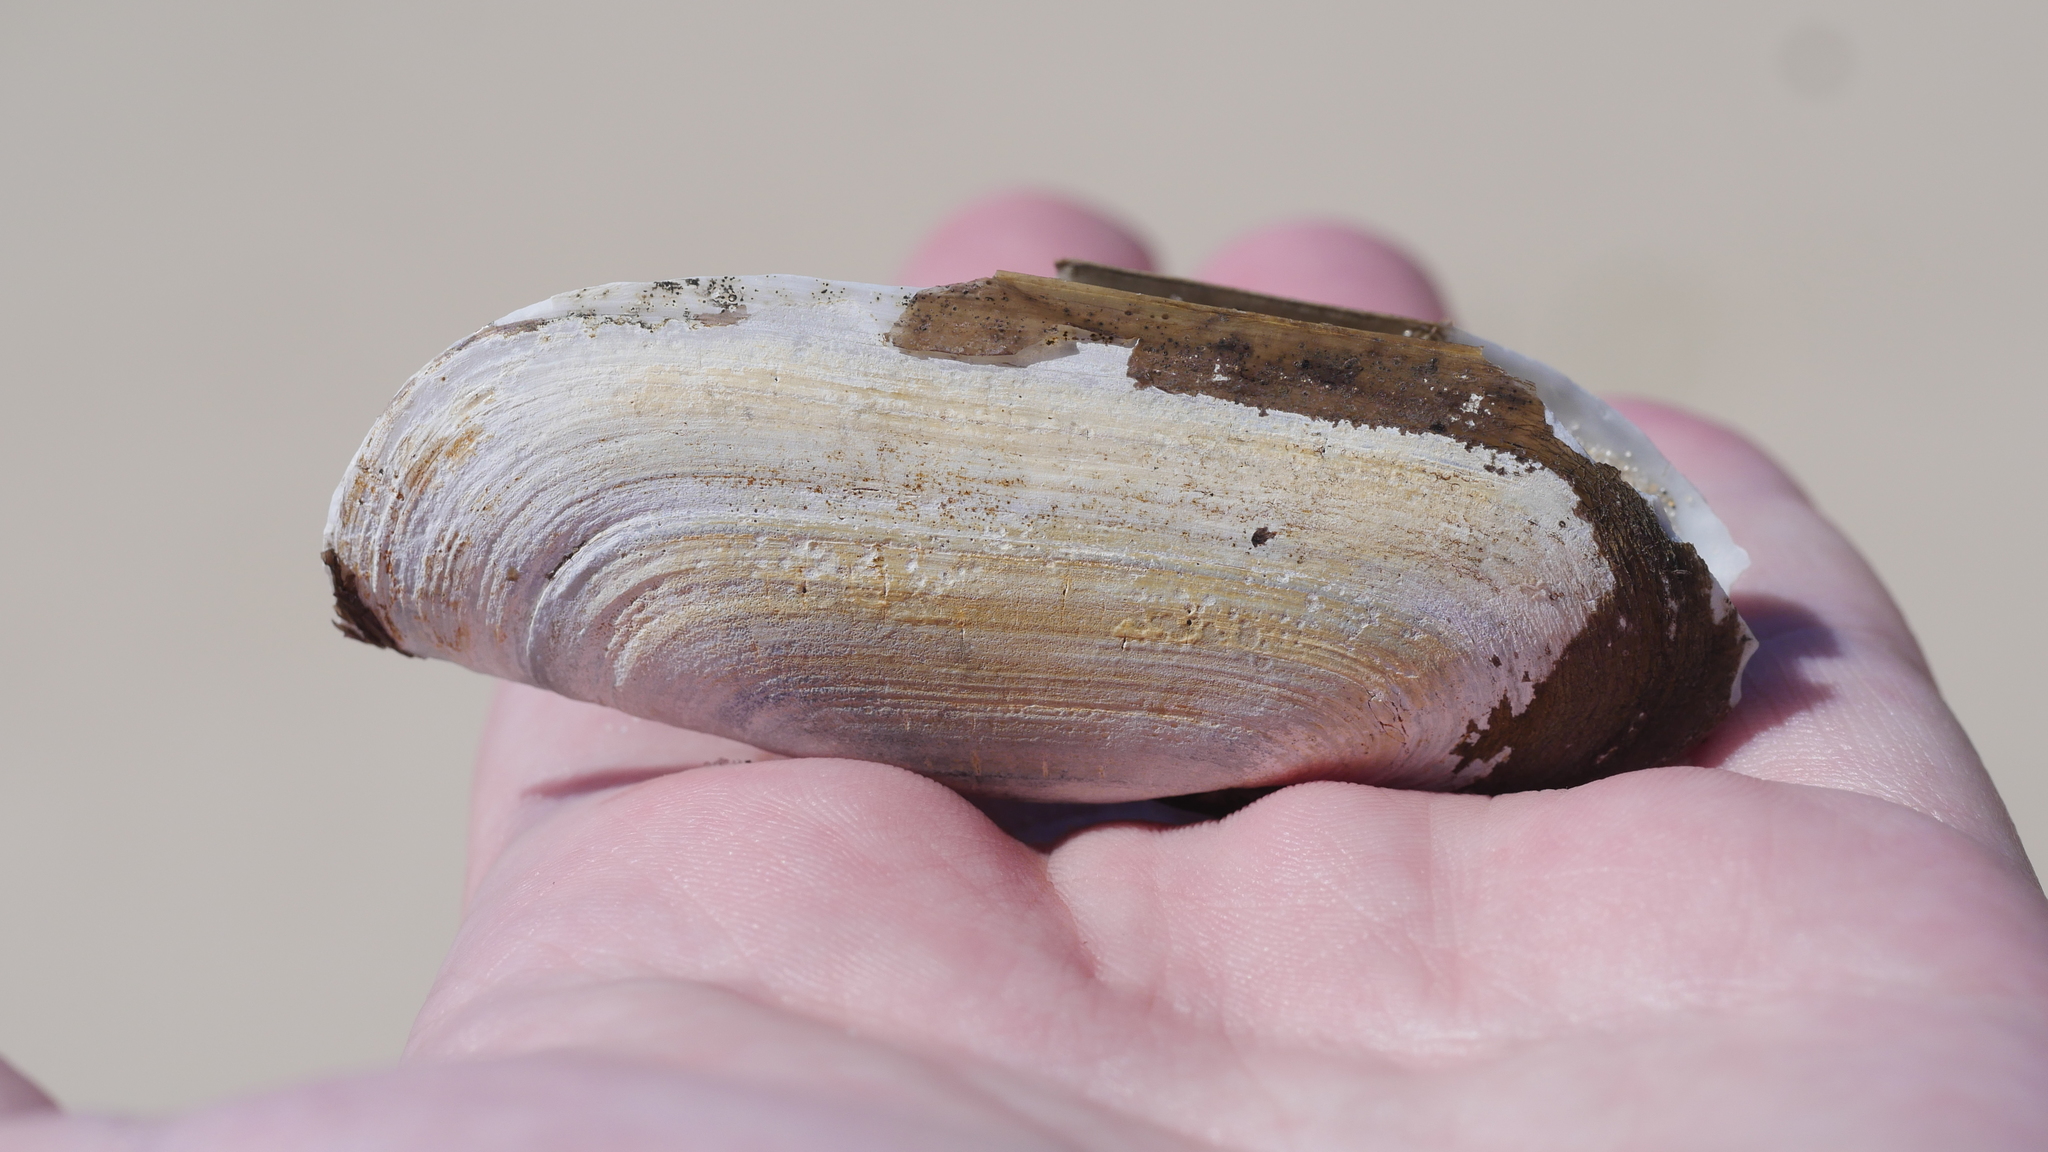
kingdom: Animalia
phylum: Mollusca
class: Bivalvia
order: Cardiida
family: Solecurtidae
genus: Tagelus
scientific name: Tagelus plebeius
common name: Stout tagelus
